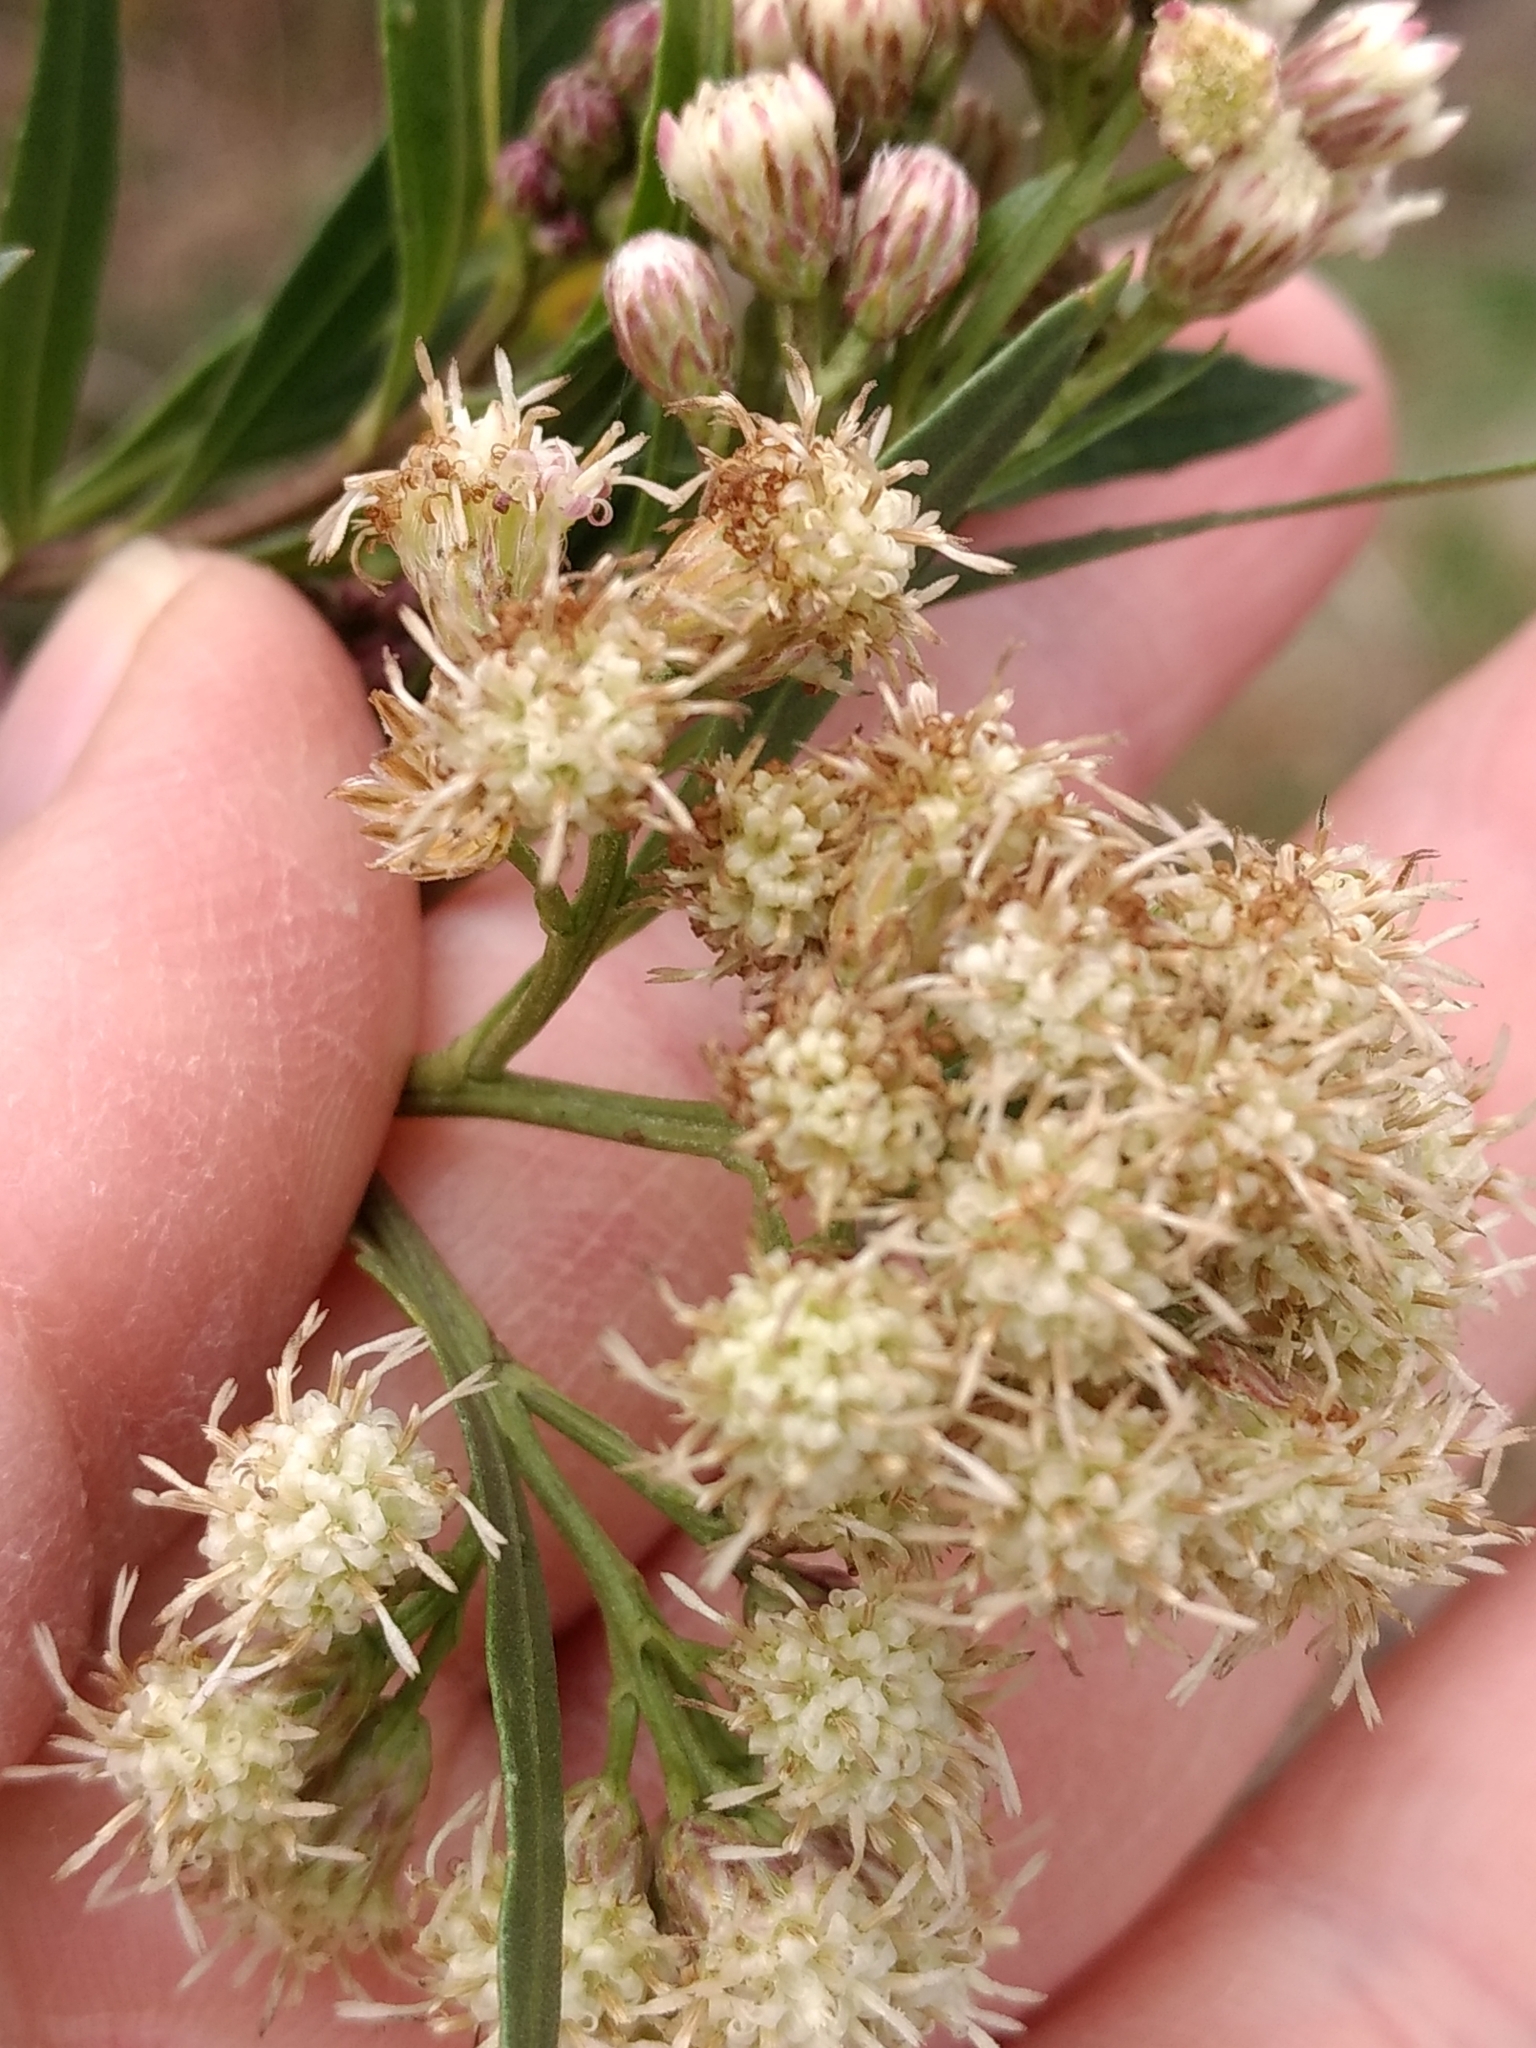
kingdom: Plantae
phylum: Tracheophyta
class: Magnoliopsida
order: Asterales
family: Asteraceae
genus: Baccharis
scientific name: Baccharis salicifolia
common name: Sticky baccharis
